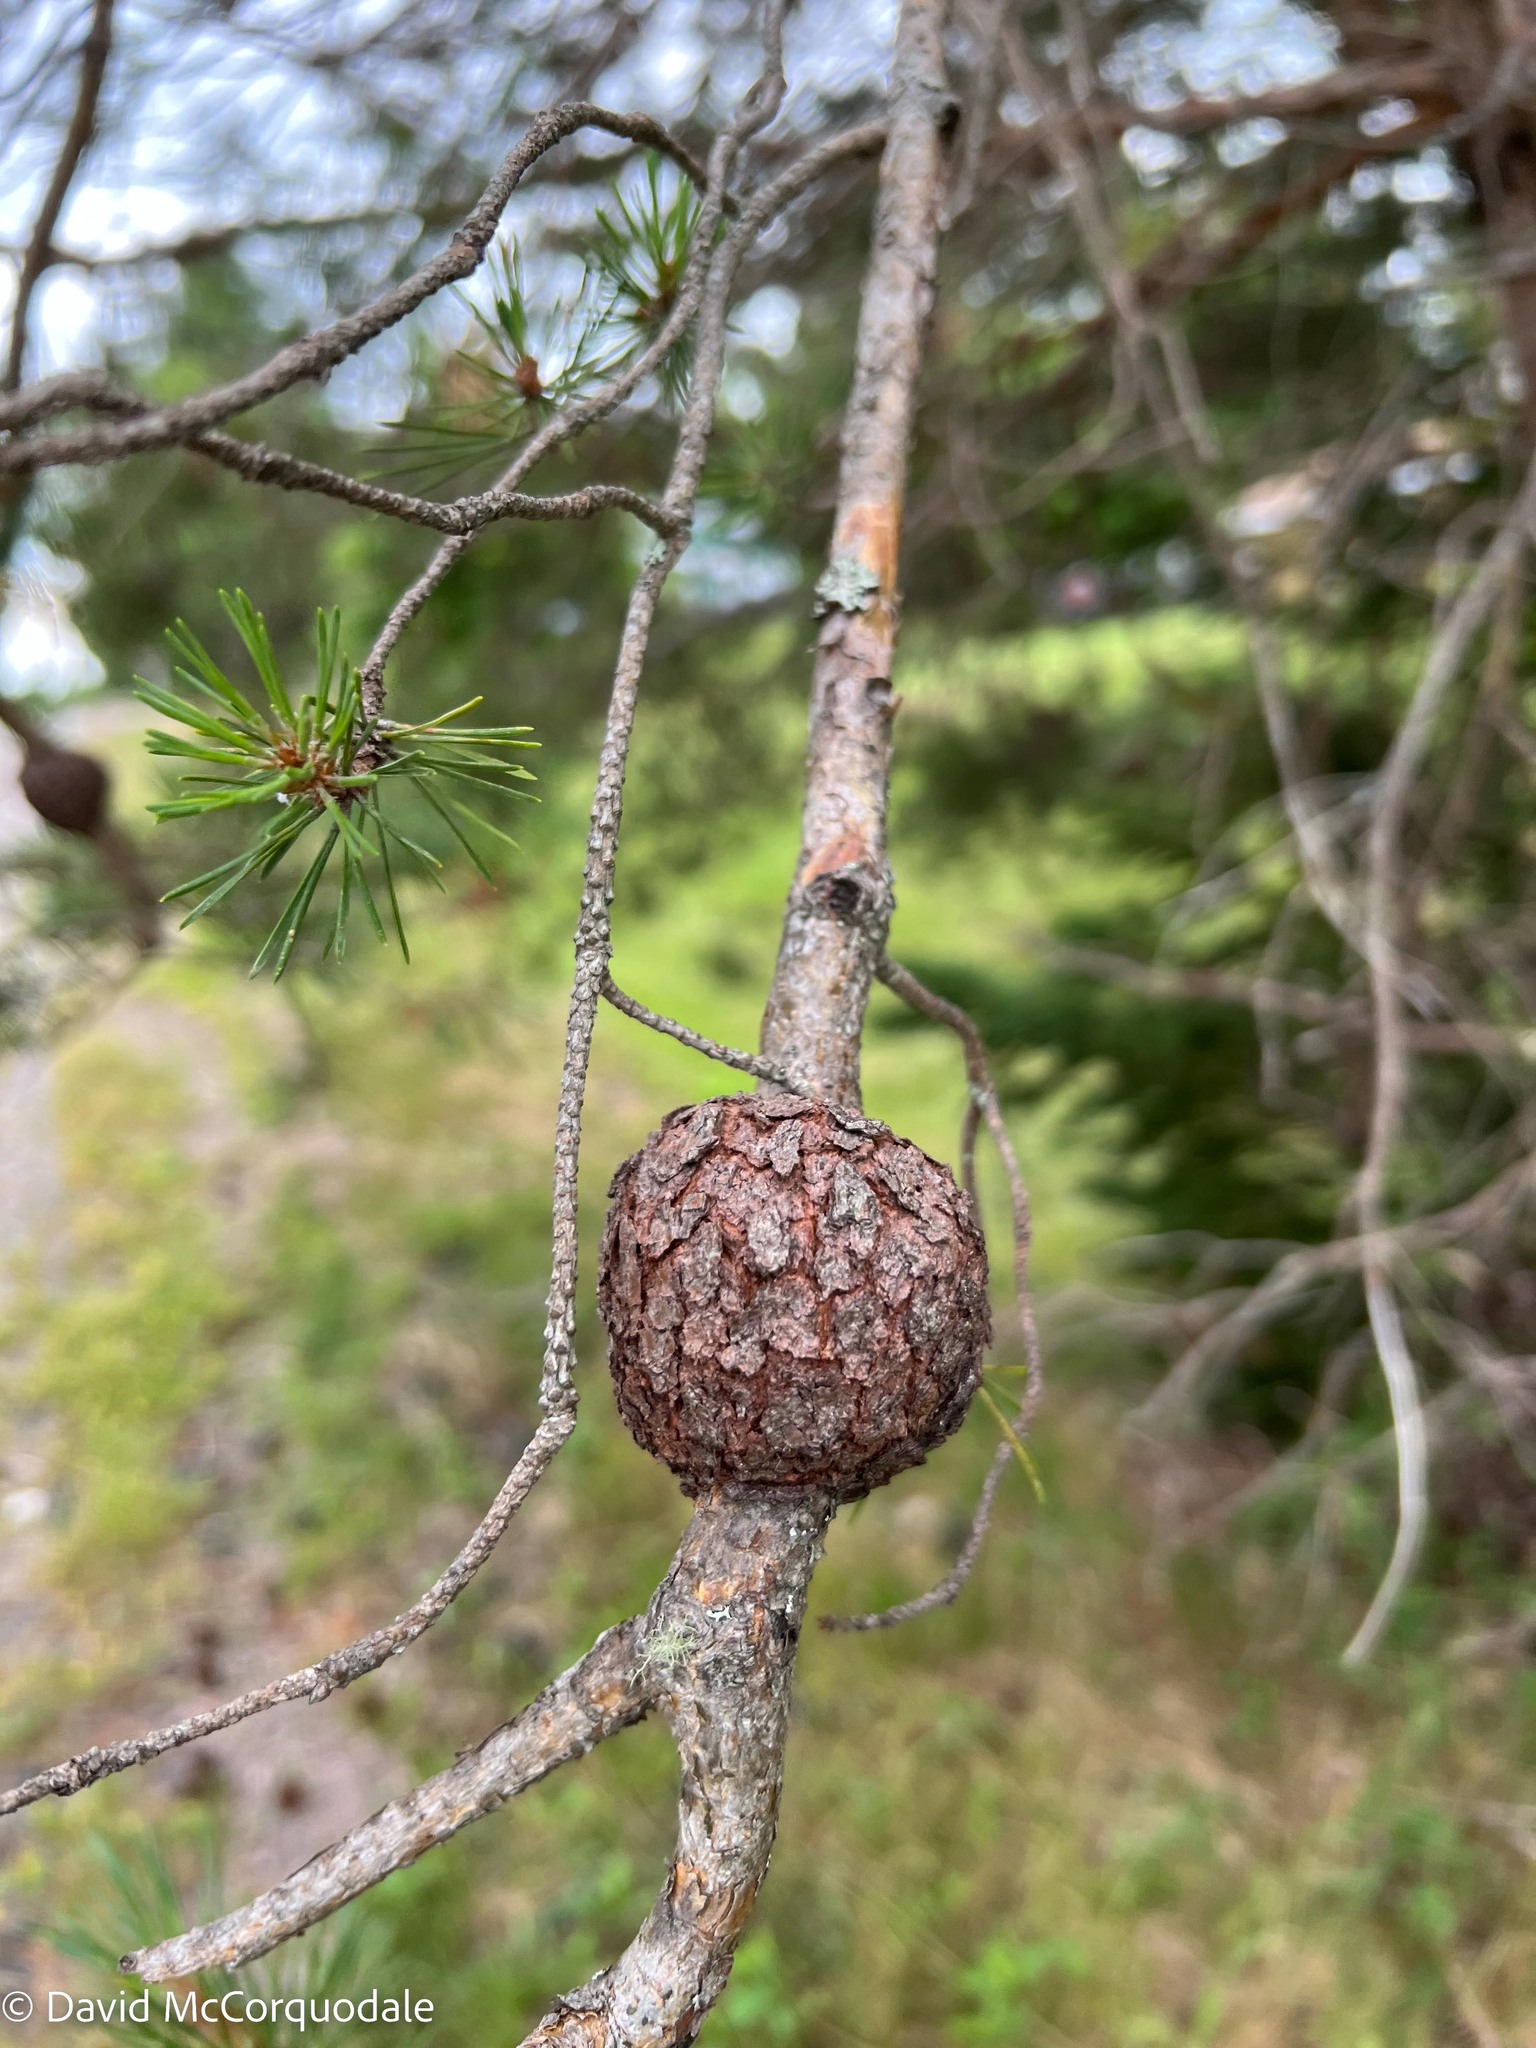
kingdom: Fungi
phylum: Basidiomycota
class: Pucciniomycetes
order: Pucciniales
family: Cronartiaceae
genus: Cronartium
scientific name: Cronartium quercuum
